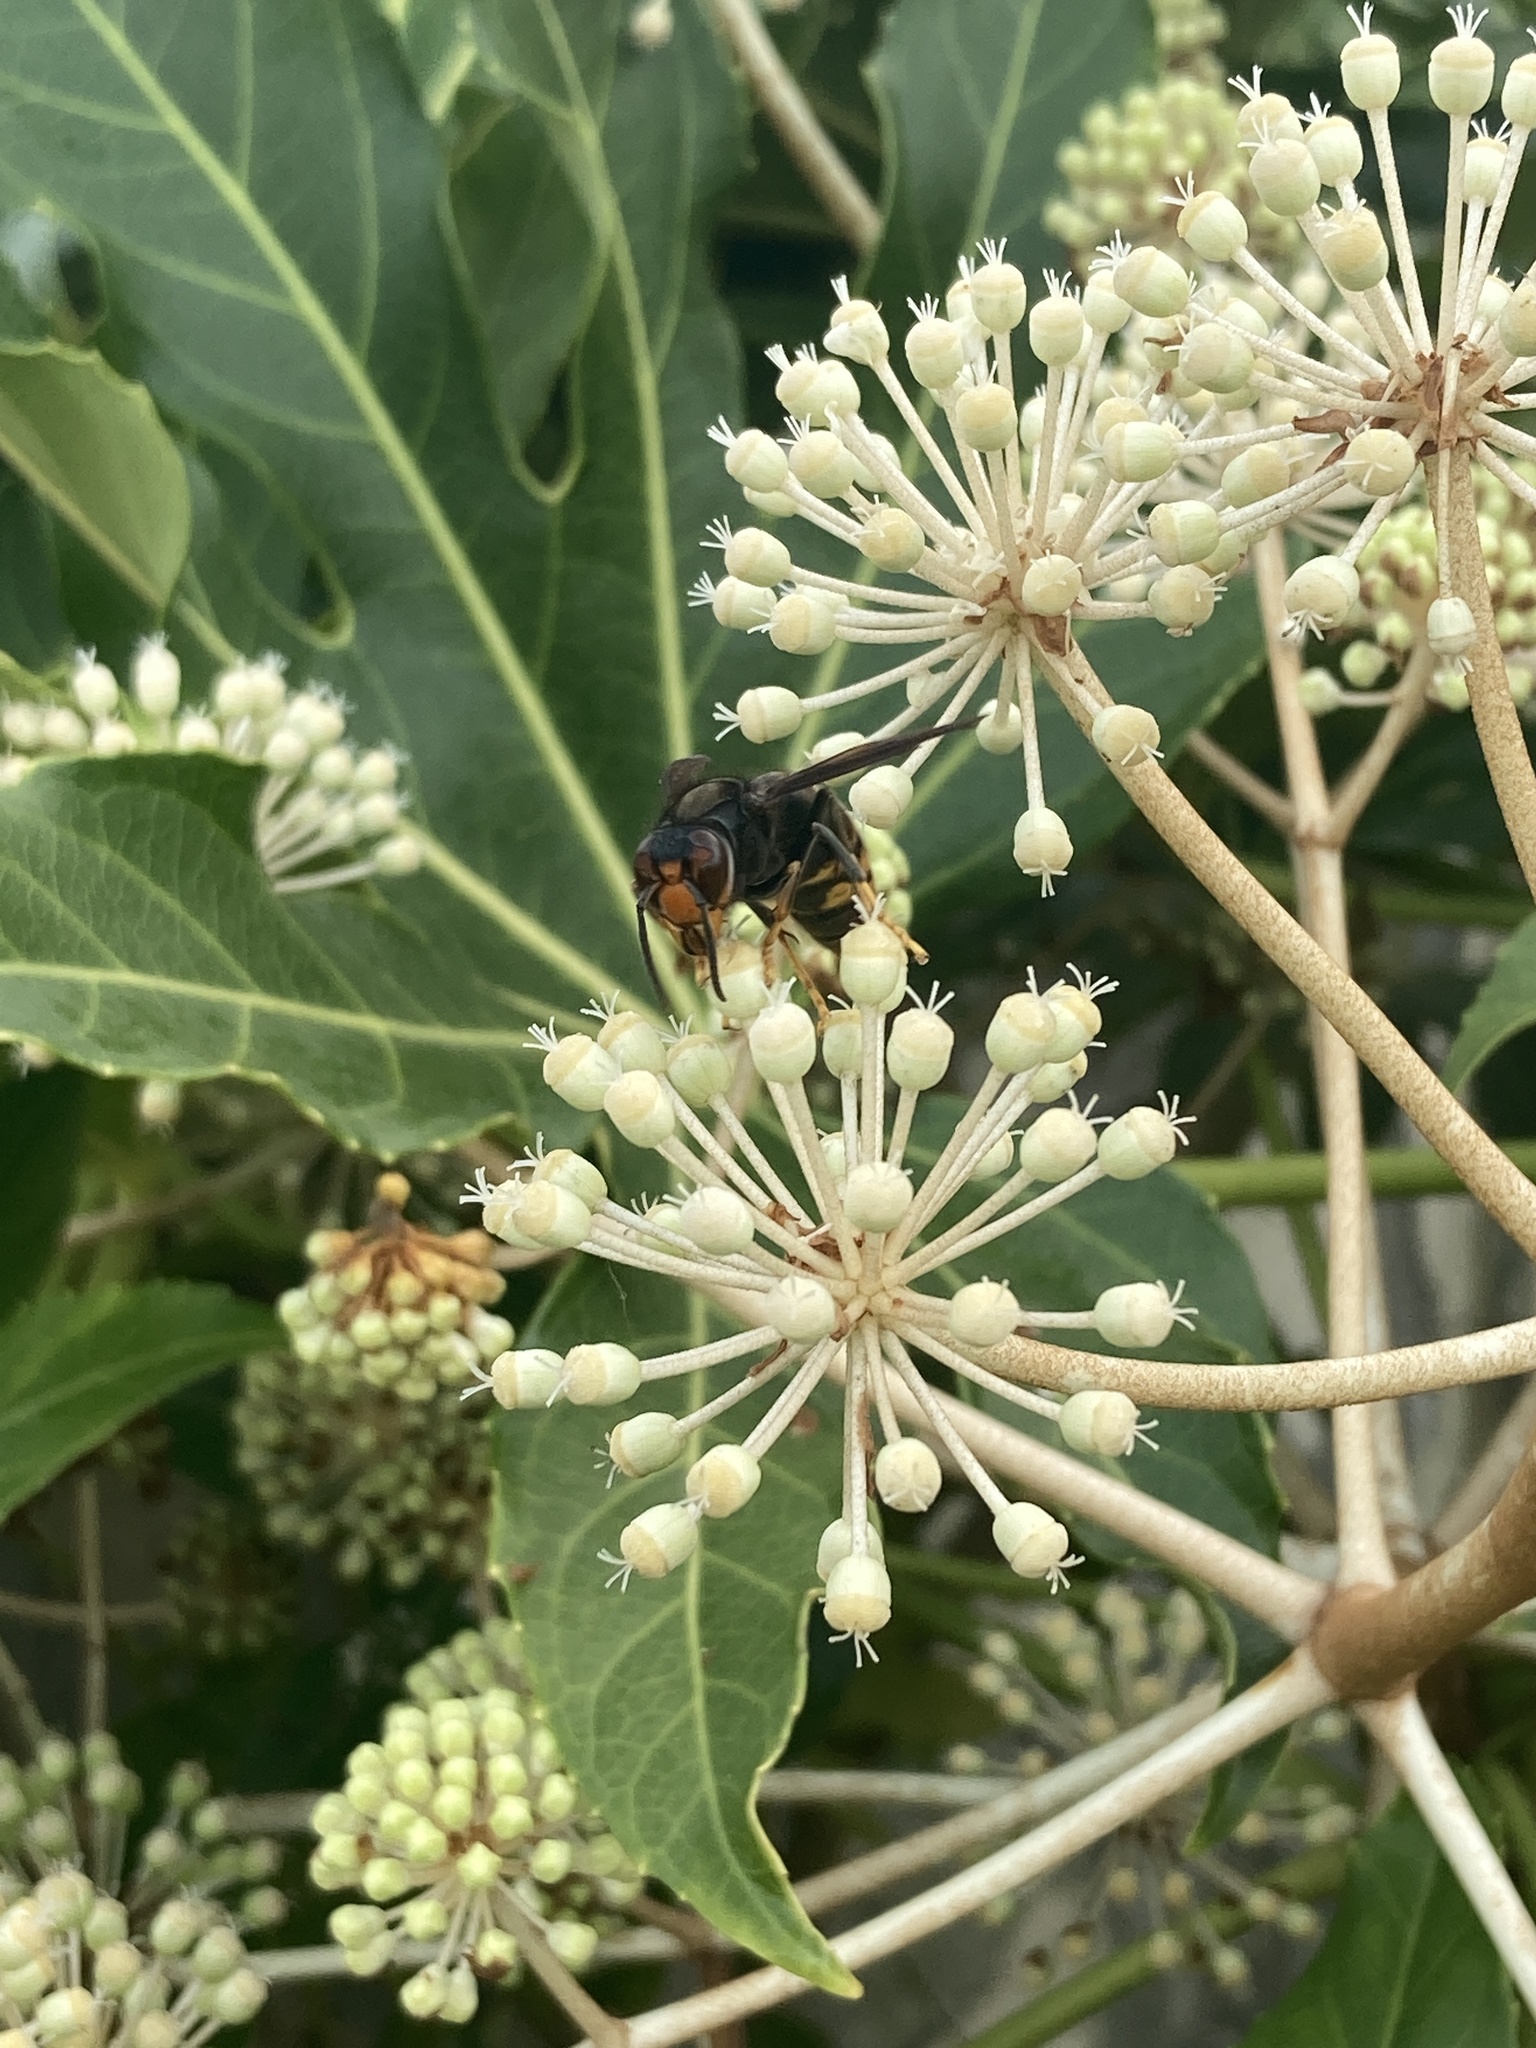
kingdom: Animalia
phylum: Arthropoda
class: Insecta
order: Hymenoptera
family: Vespidae
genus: Vespa
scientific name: Vespa velutina
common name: Asian hornet
